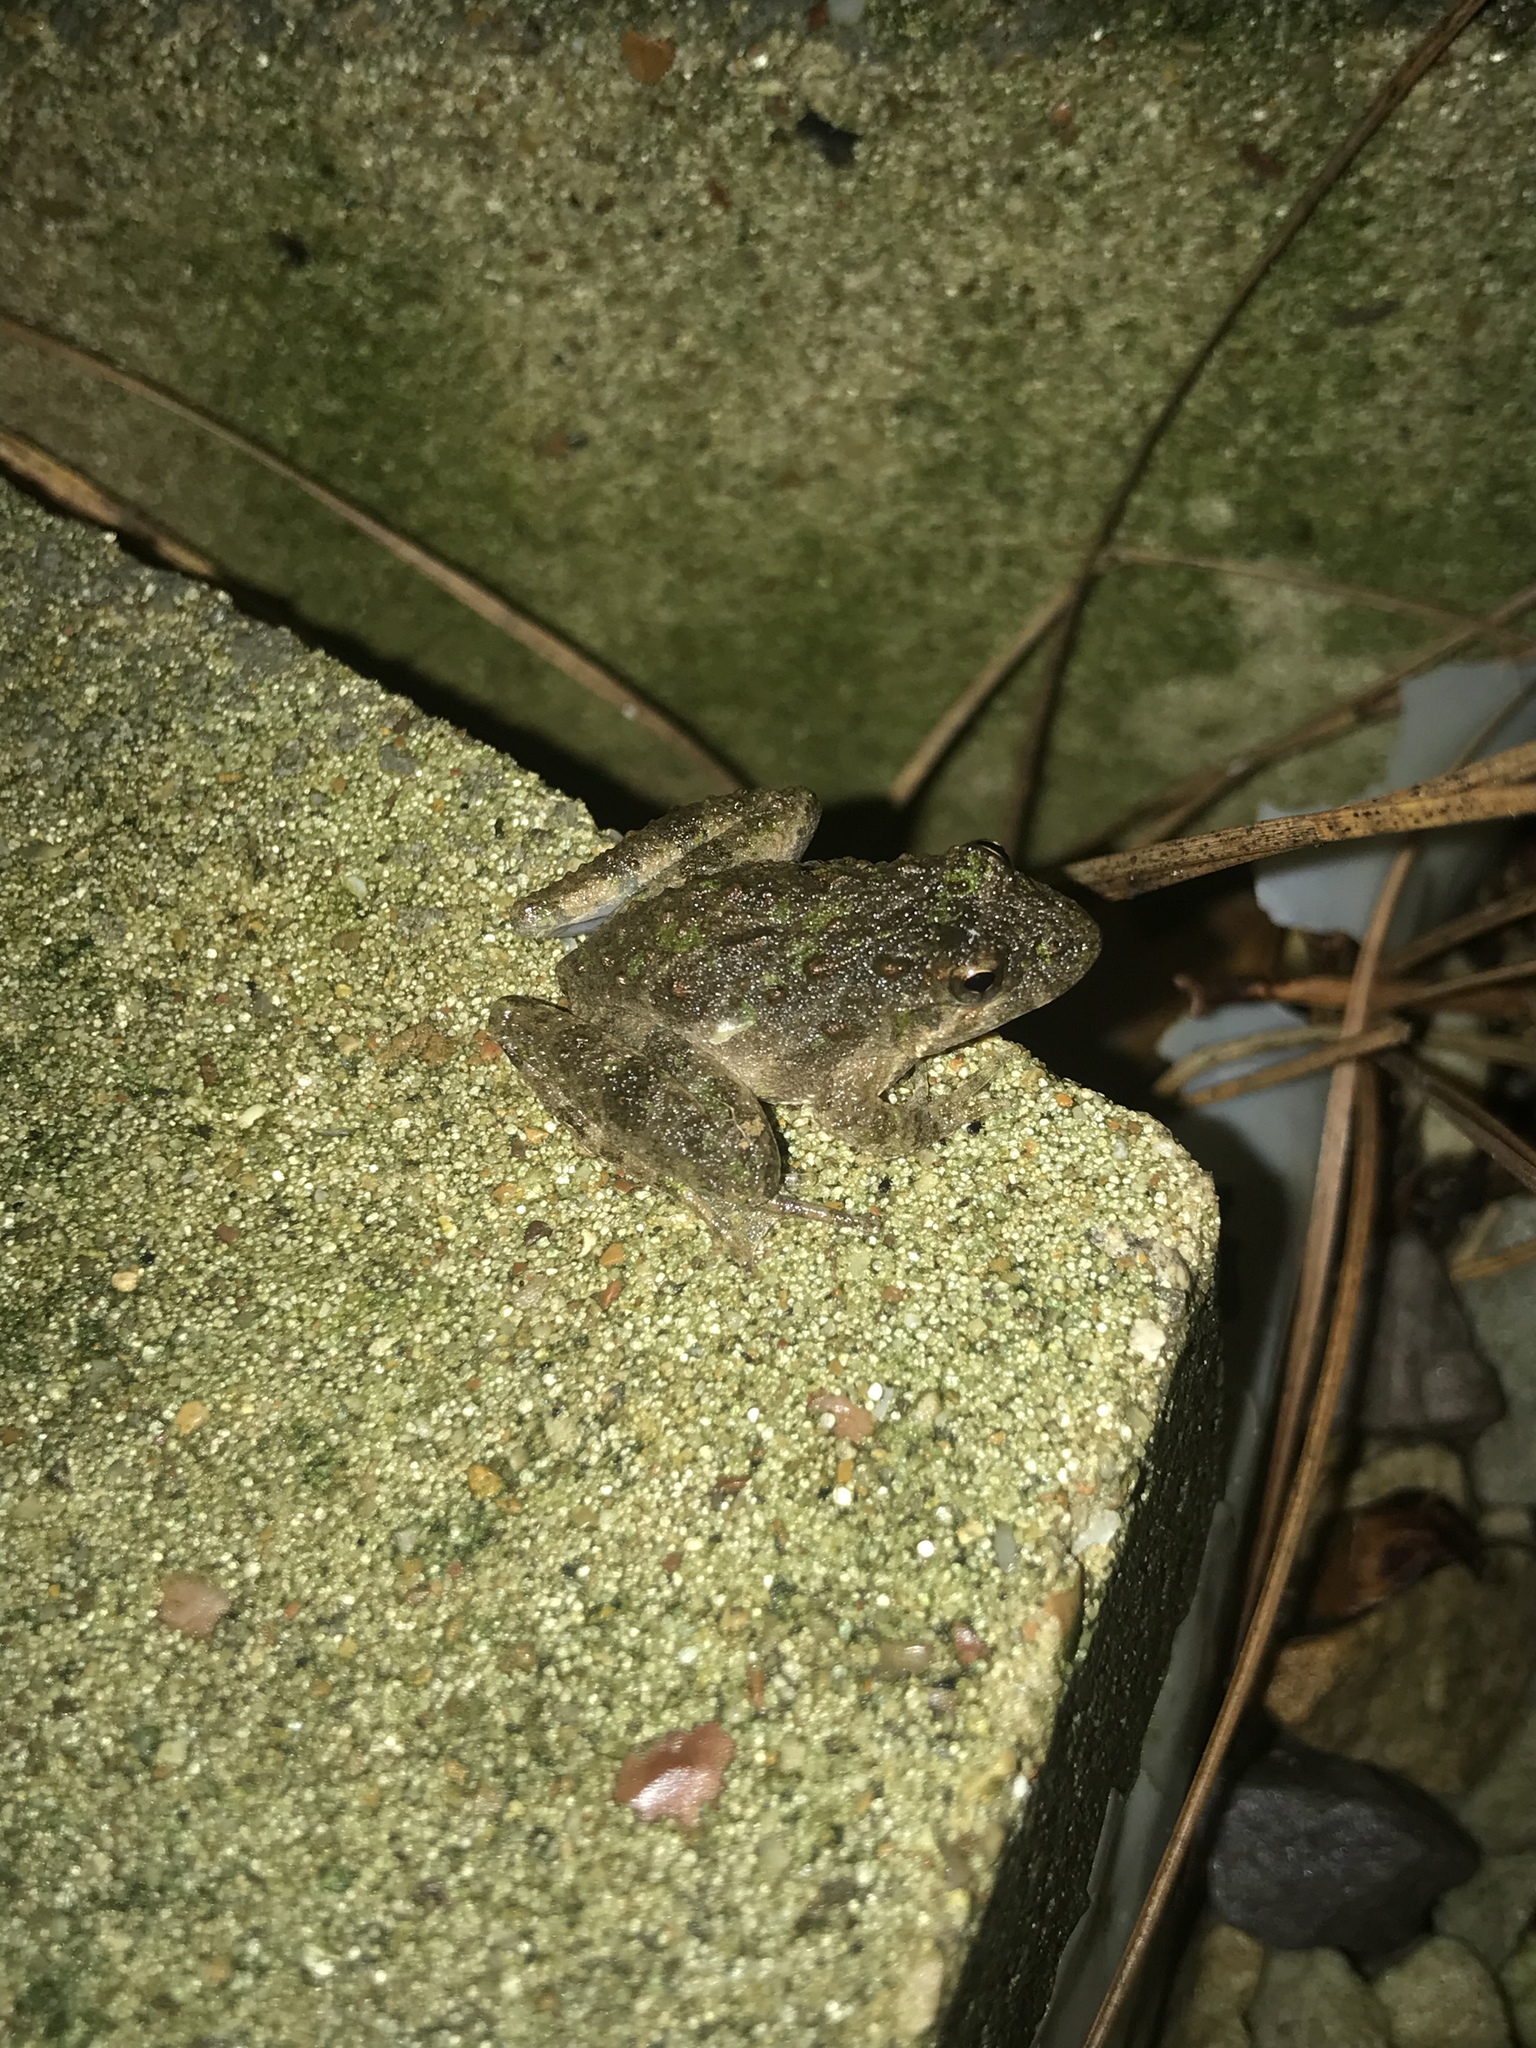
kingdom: Animalia
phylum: Chordata
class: Amphibia
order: Anura
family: Hylidae
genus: Acris
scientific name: Acris blanchardi
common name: Blanchard's cricket frog
